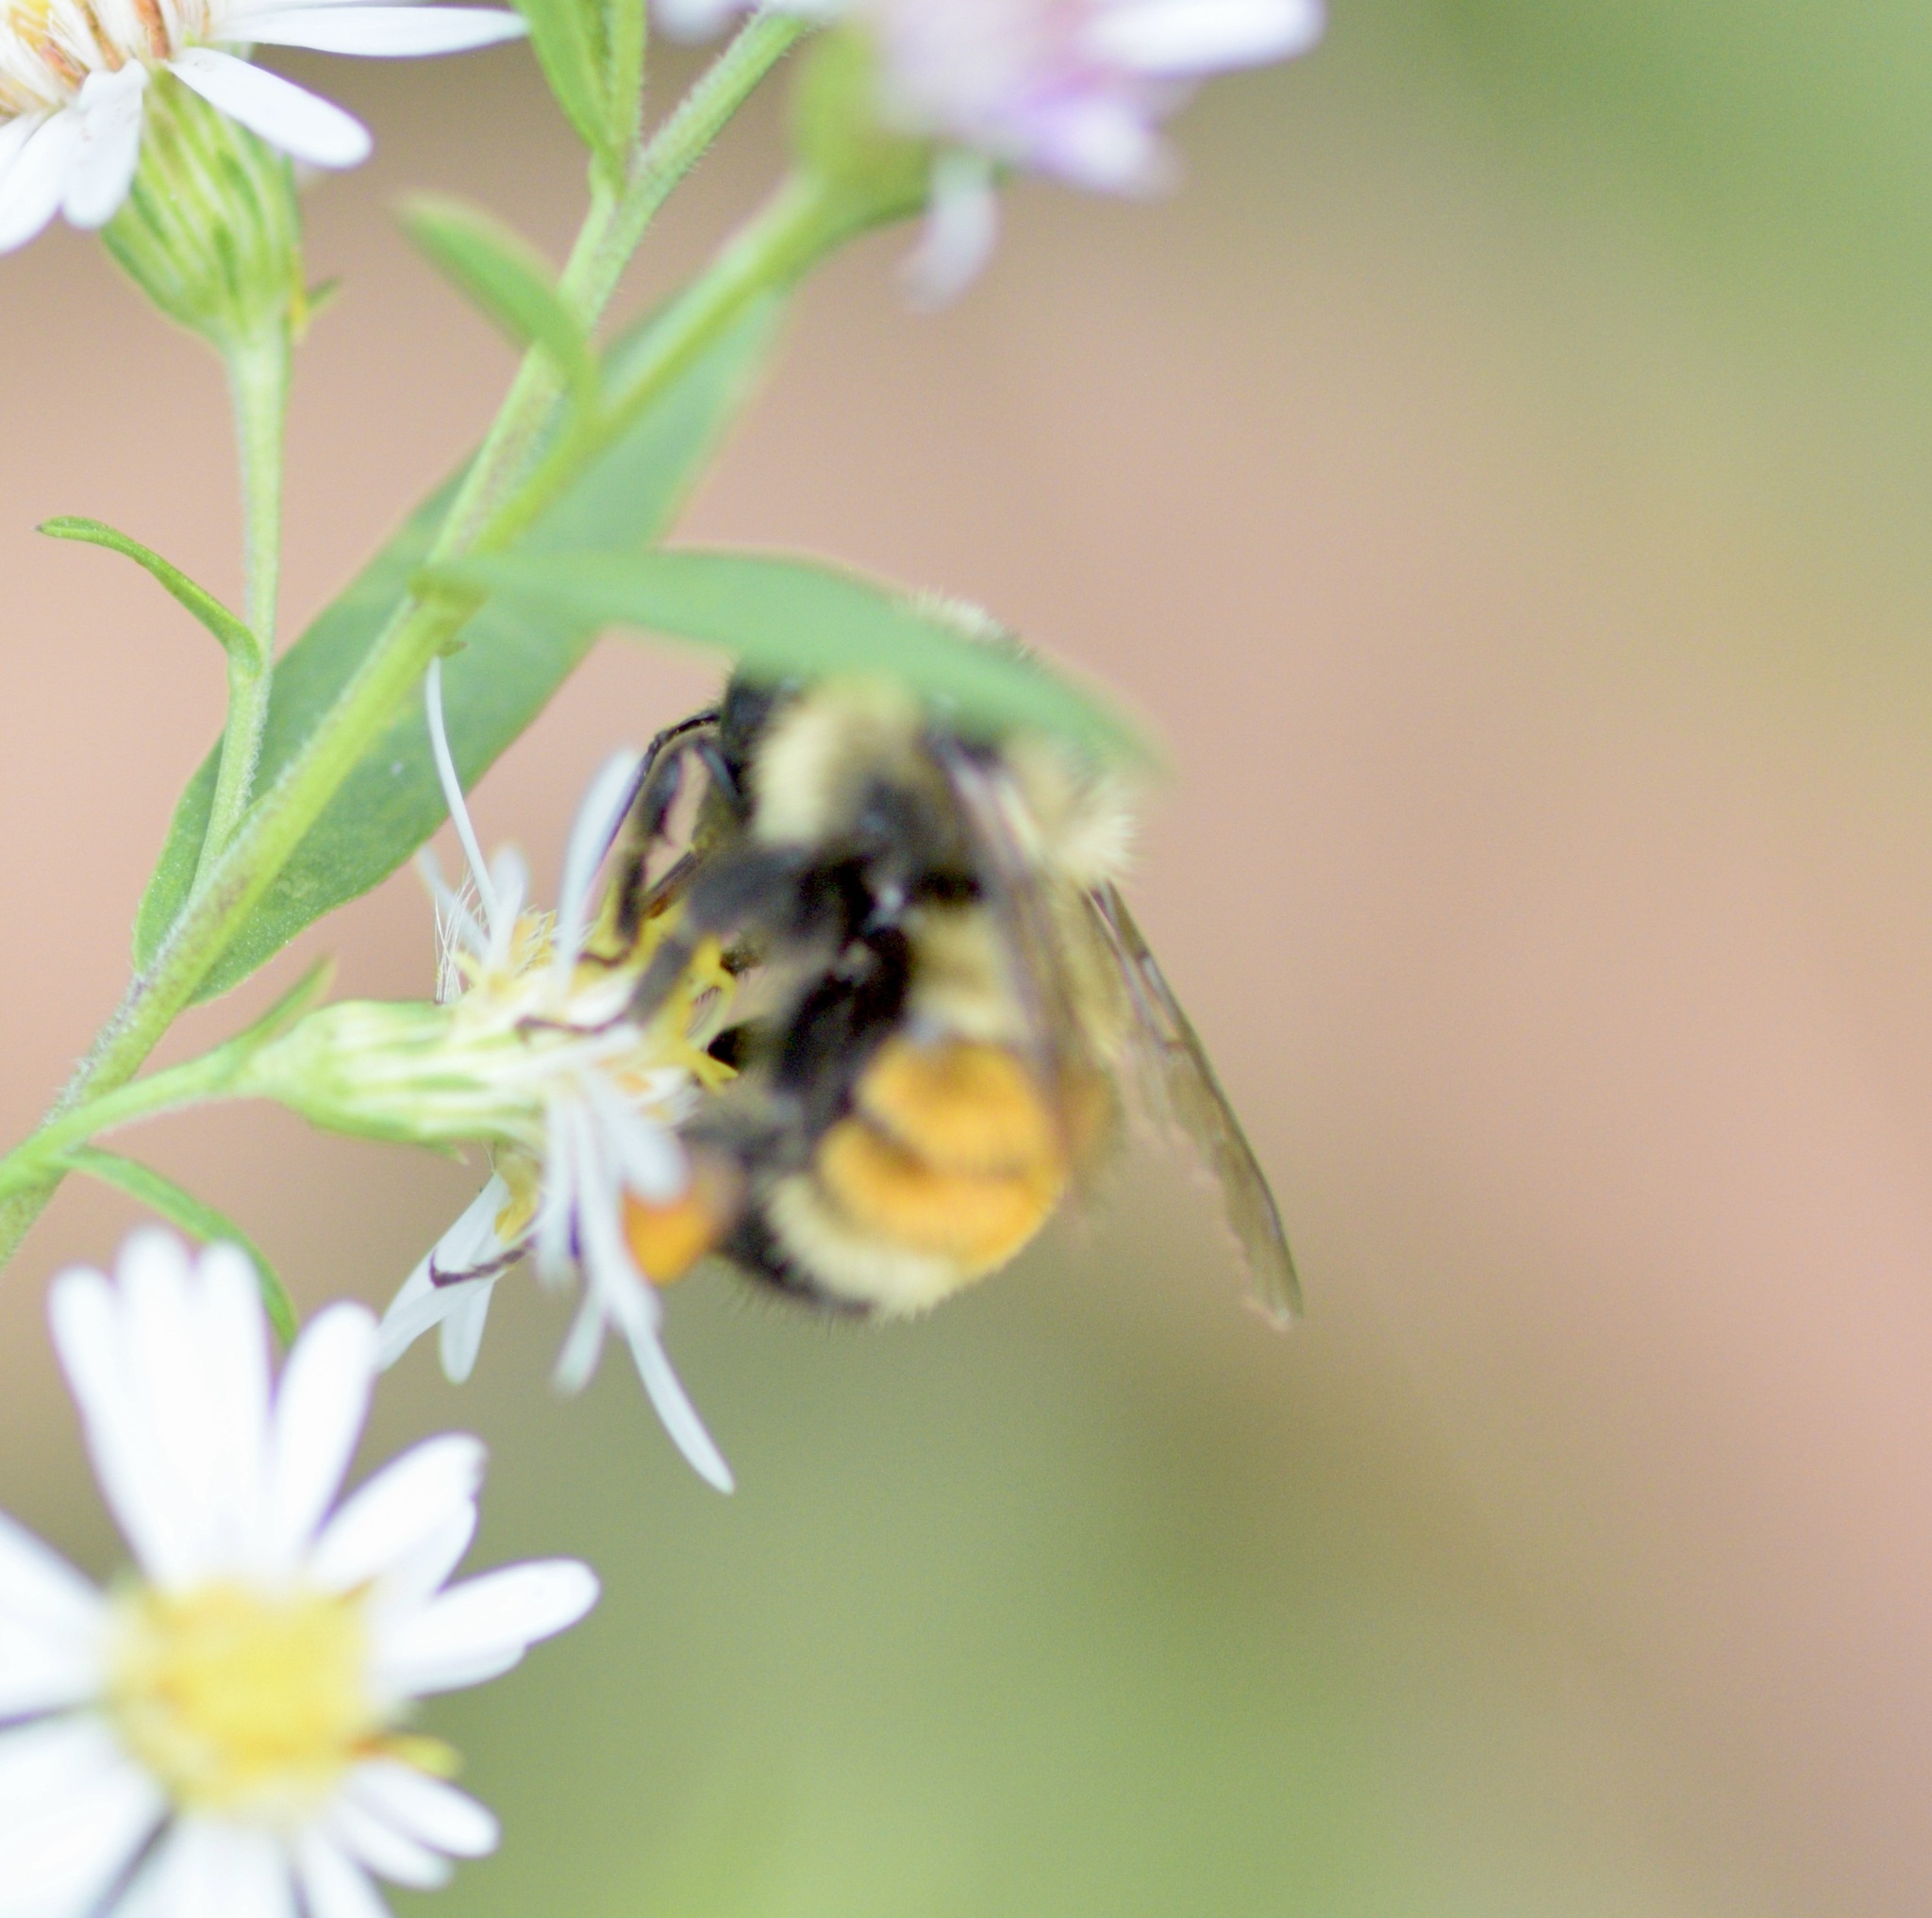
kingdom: Animalia
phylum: Arthropoda
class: Insecta
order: Hymenoptera
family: Apidae
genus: Bombus
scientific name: Bombus ternarius
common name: Tri-colored bumble bee
